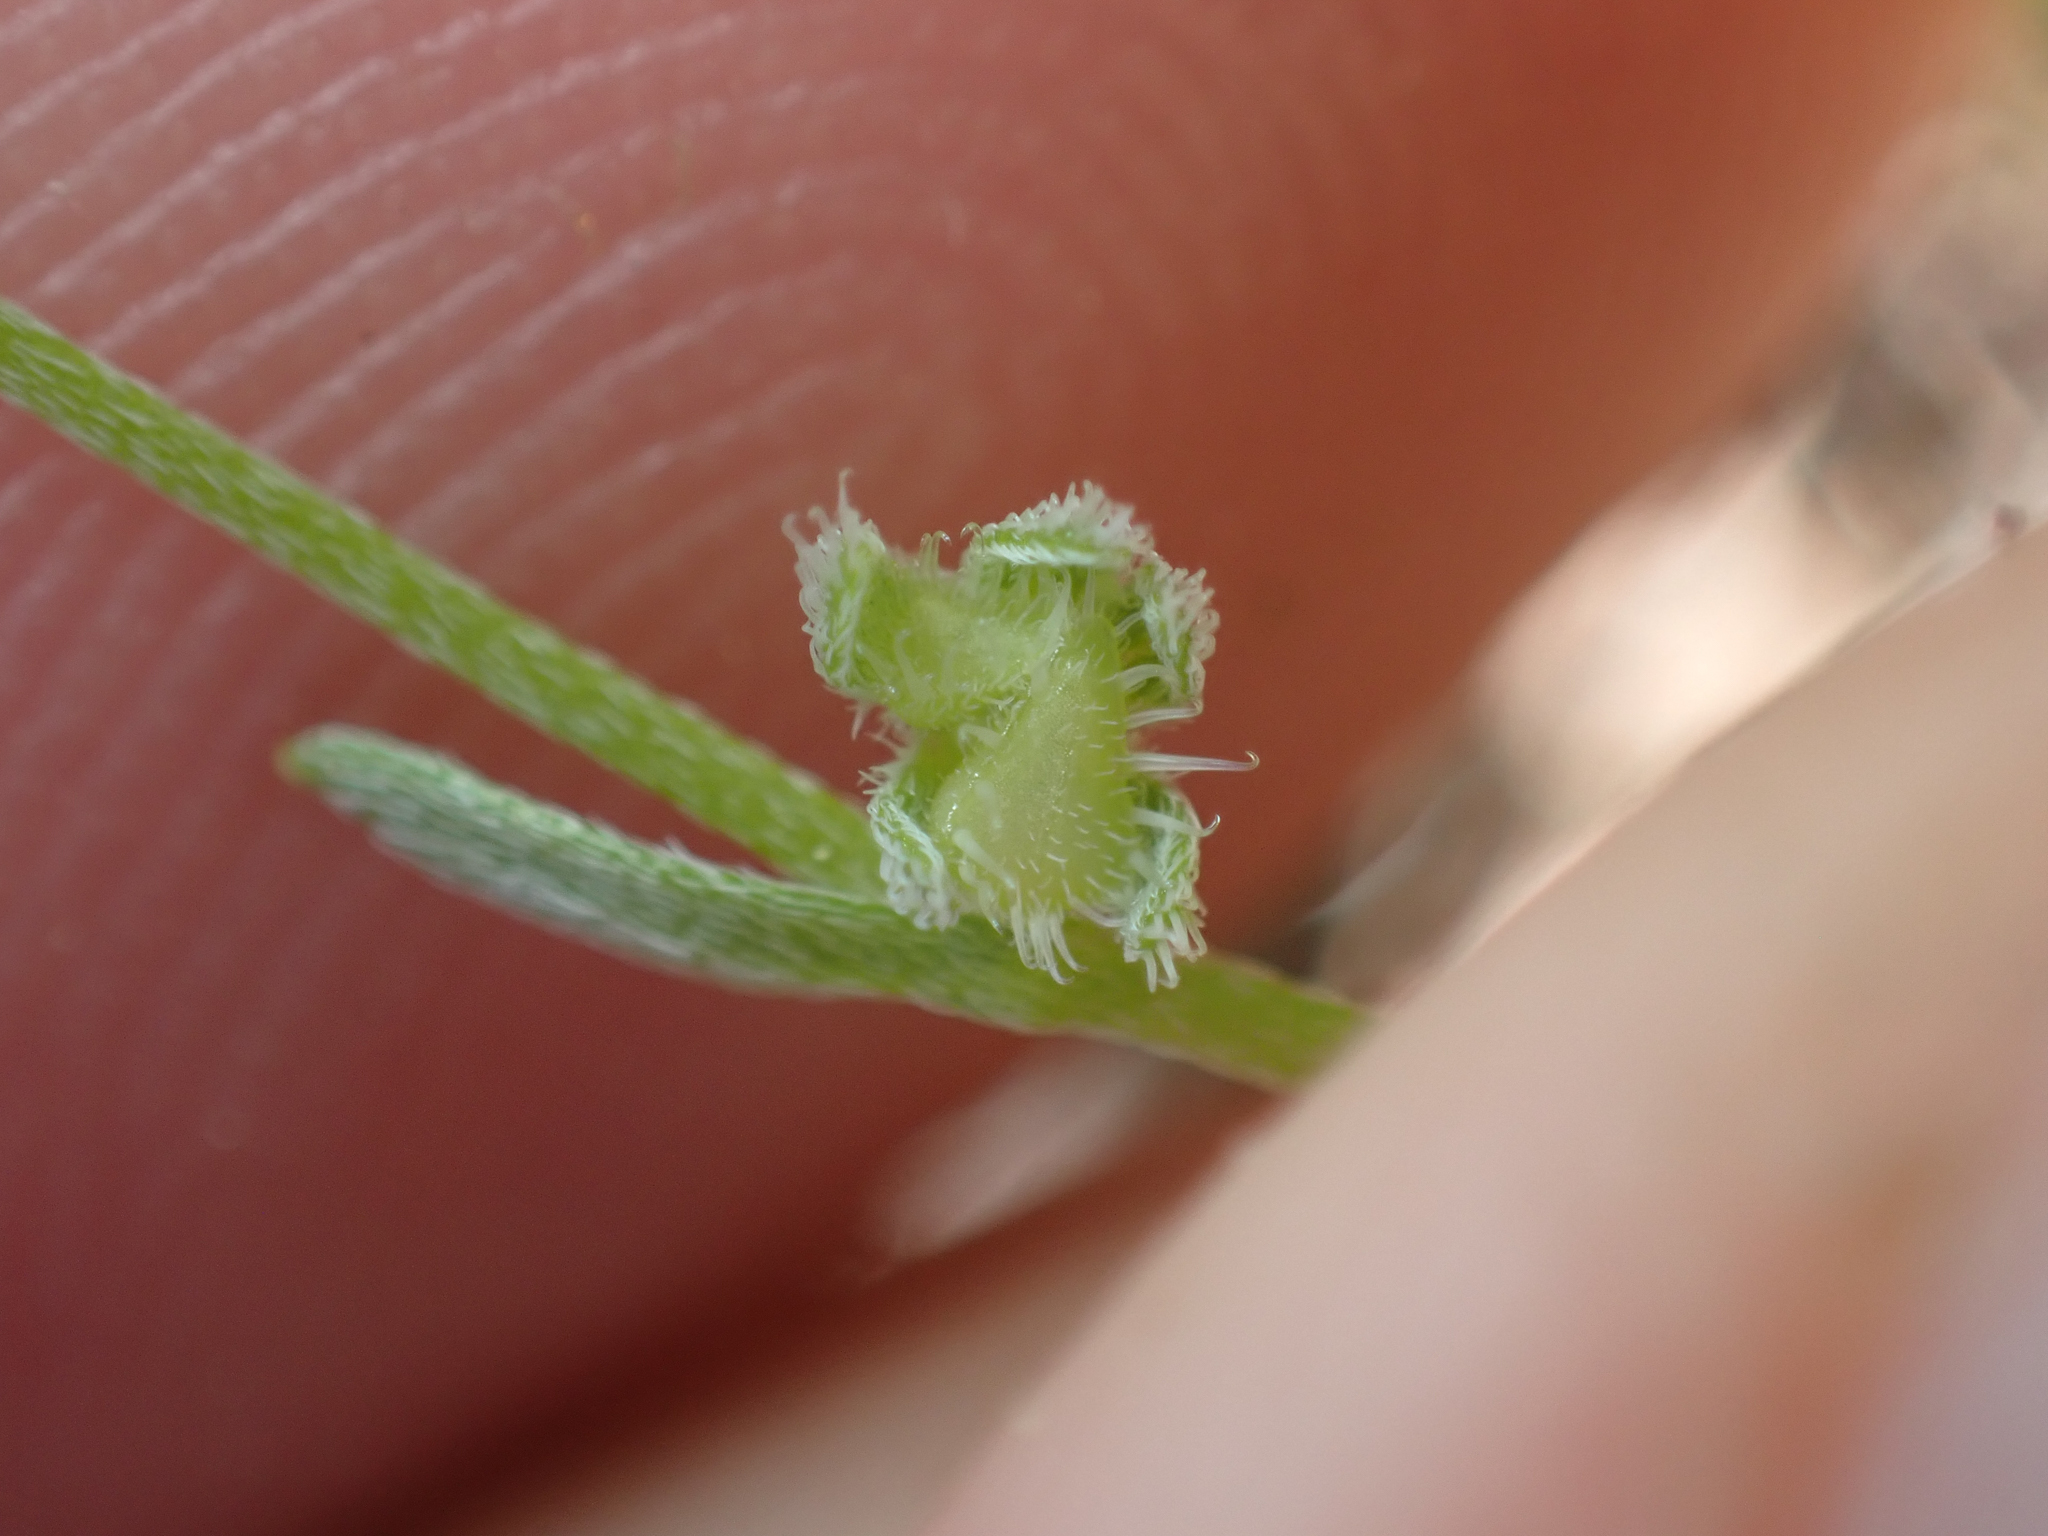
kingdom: Plantae
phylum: Tracheophyta
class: Magnoliopsida
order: Boraginales
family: Boraginaceae
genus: Pectocarya
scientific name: Pectocarya pusilla
